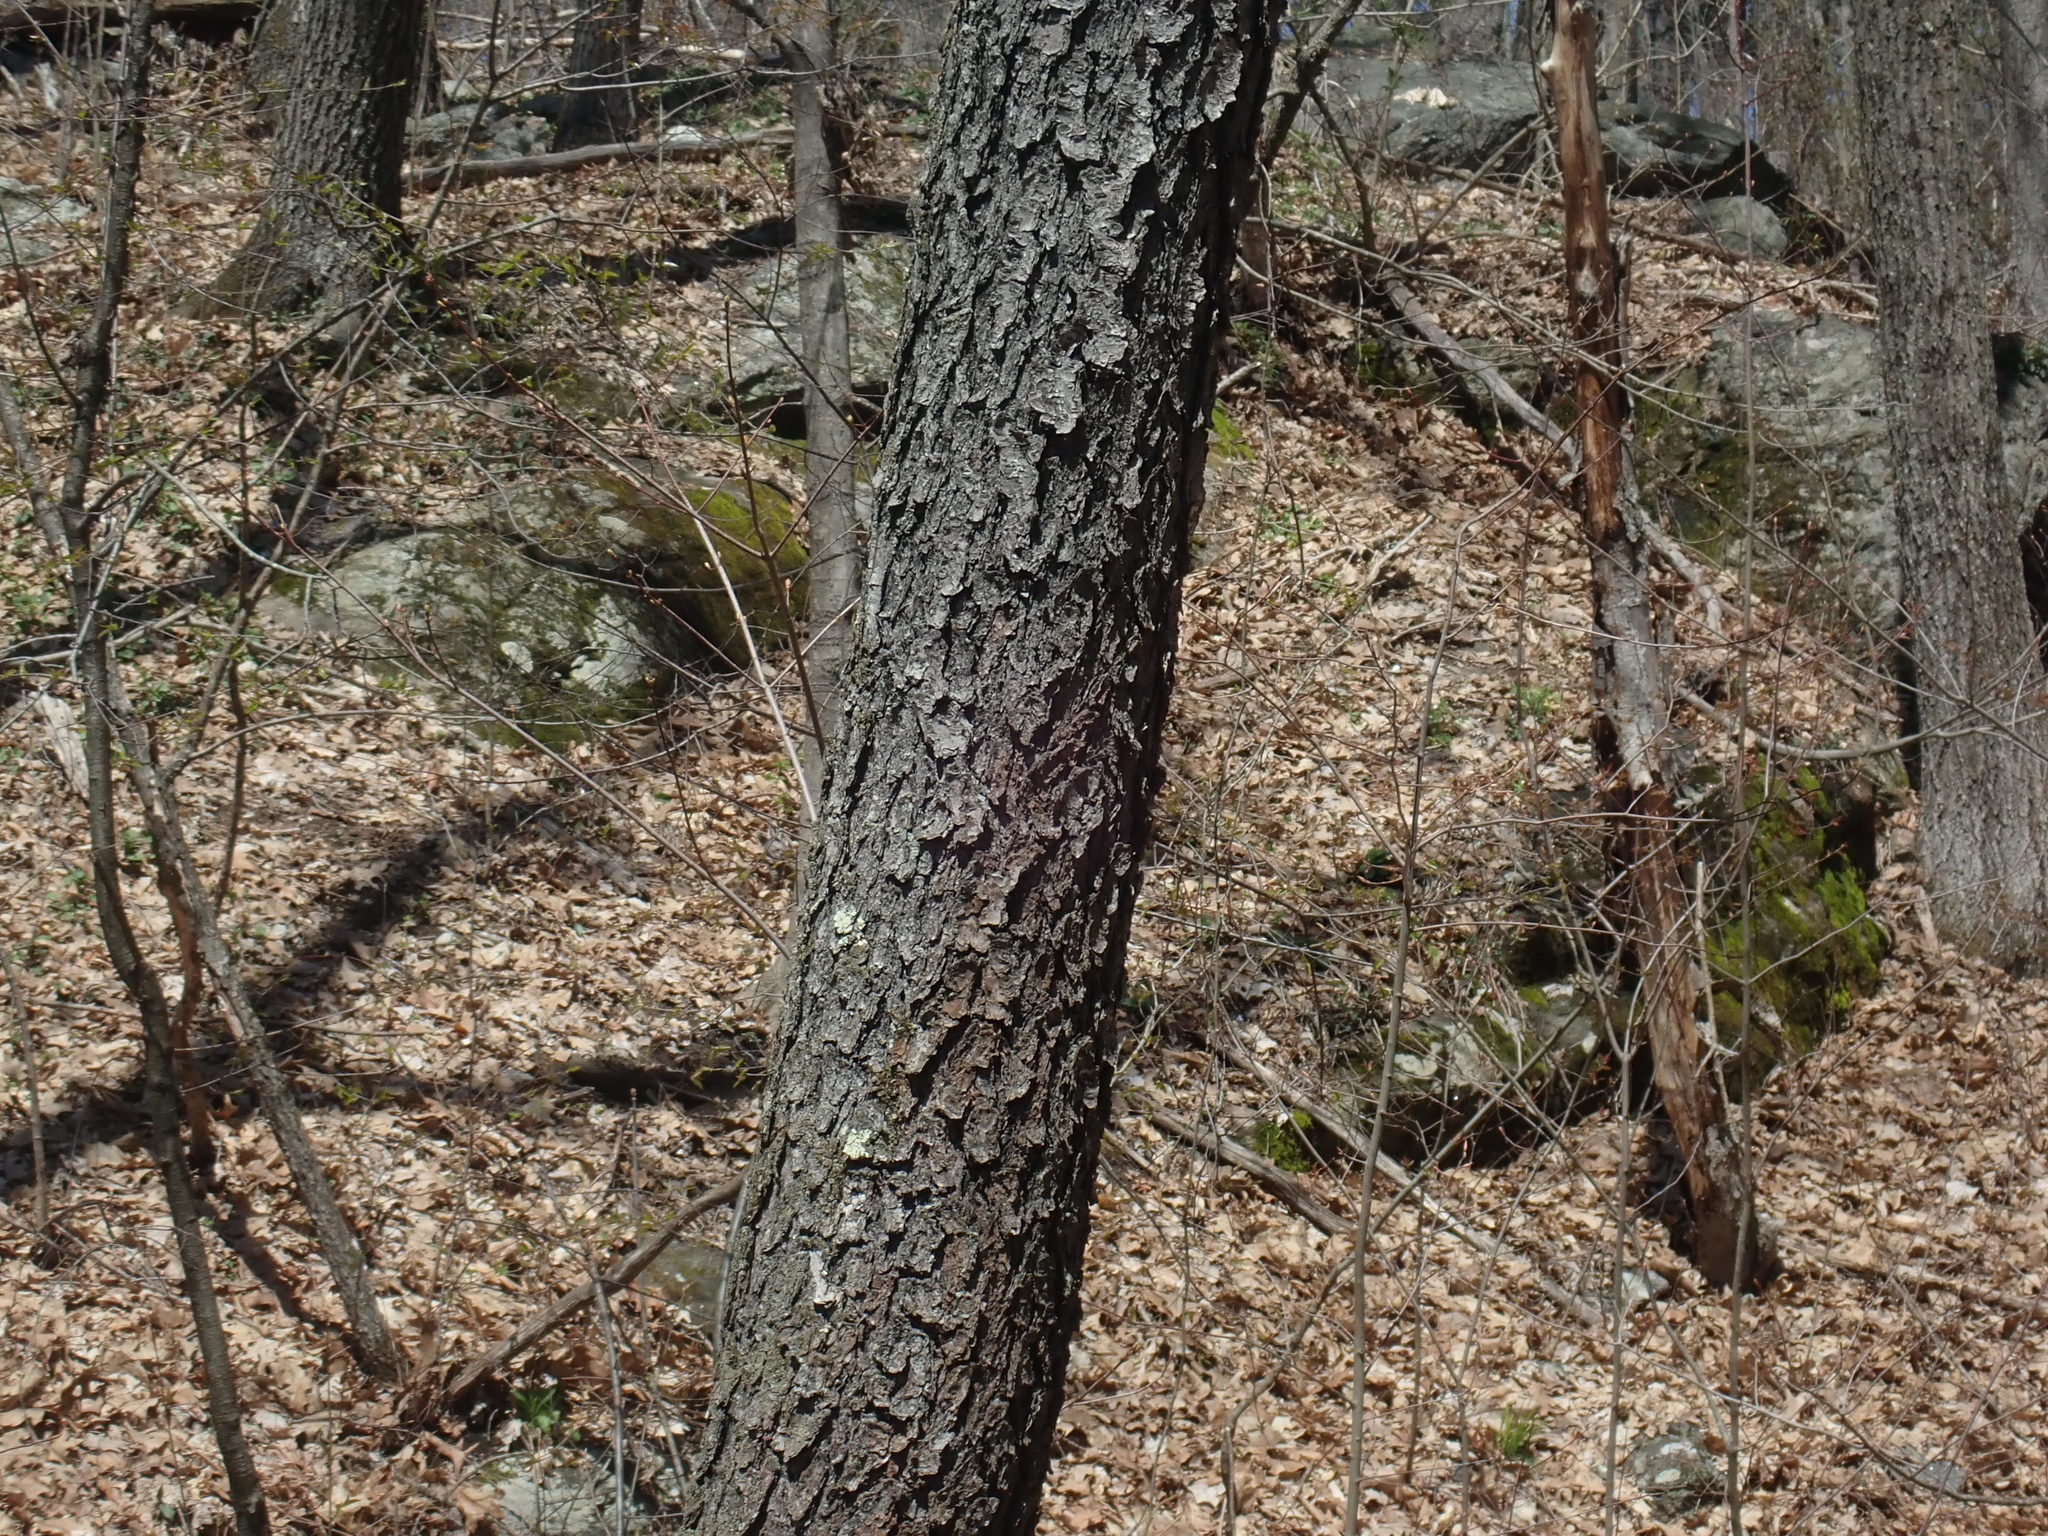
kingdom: Plantae
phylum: Tracheophyta
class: Magnoliopsida
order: Rosales
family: Rosaceae
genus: Prunus
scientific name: Prunus serotina
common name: Black cherry
